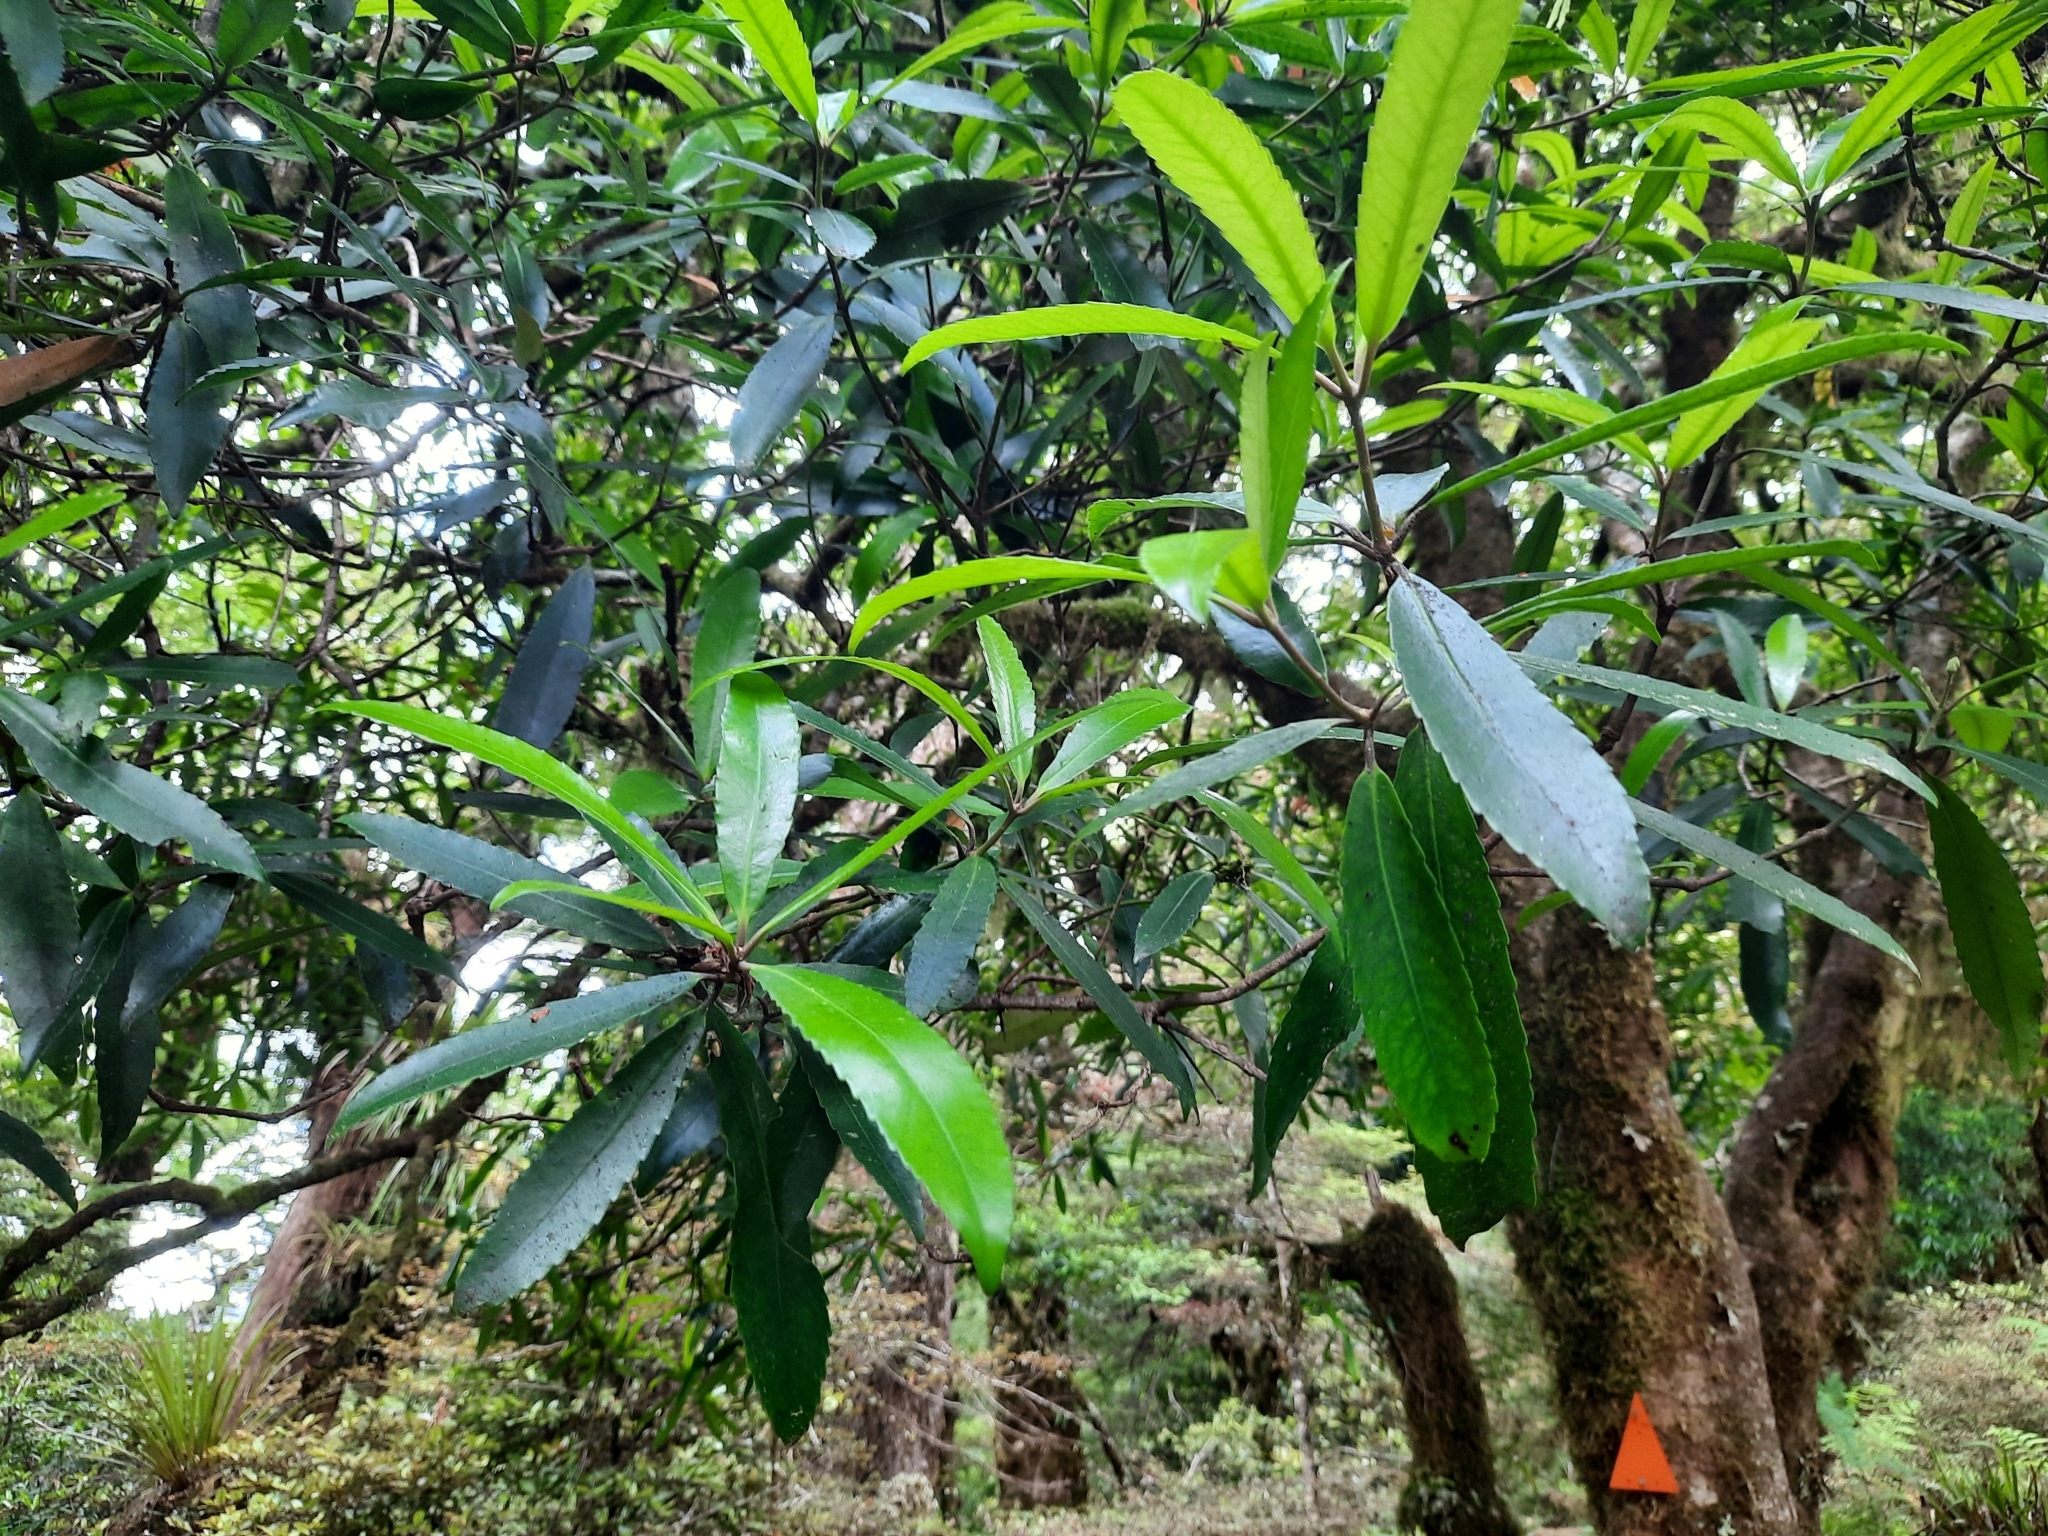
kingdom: Plantae
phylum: Tracheophyta
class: Magnoliopsida
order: Crossosomatales
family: Ixerbaceae
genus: Ixerba
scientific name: Ixerba brexioides
